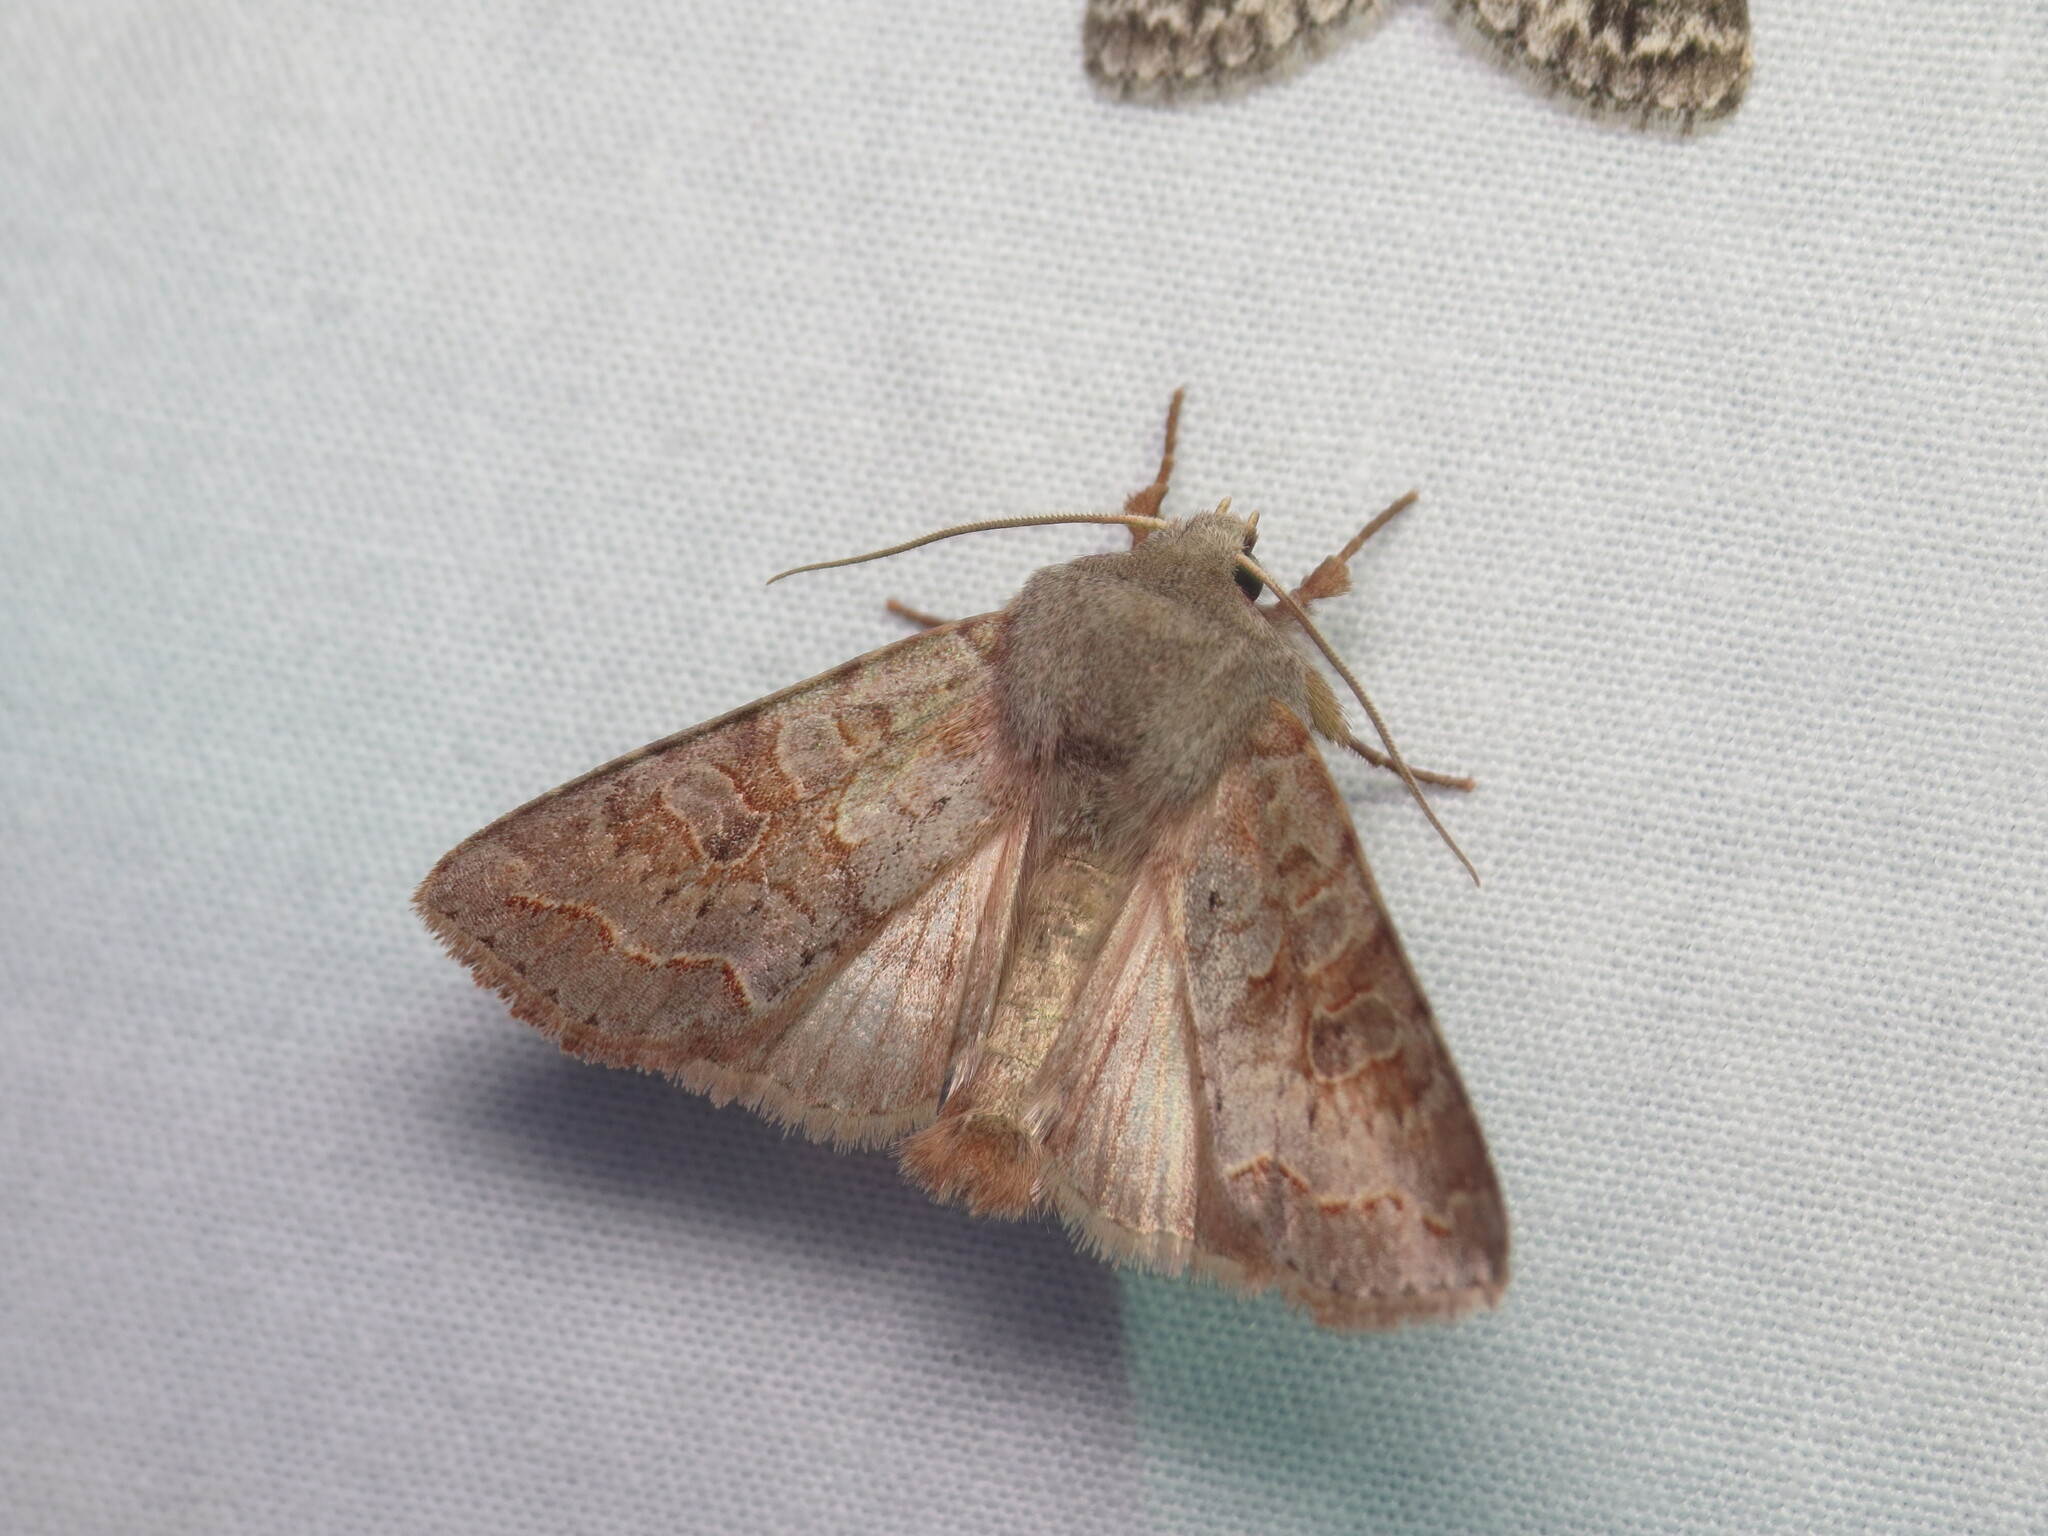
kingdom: Animalia
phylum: Arthropoda
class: Insecta
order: Lepidoptera
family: Noctuidae
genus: Orthosia
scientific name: Orthosia revicta
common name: Rusty whitesided caterpillar
